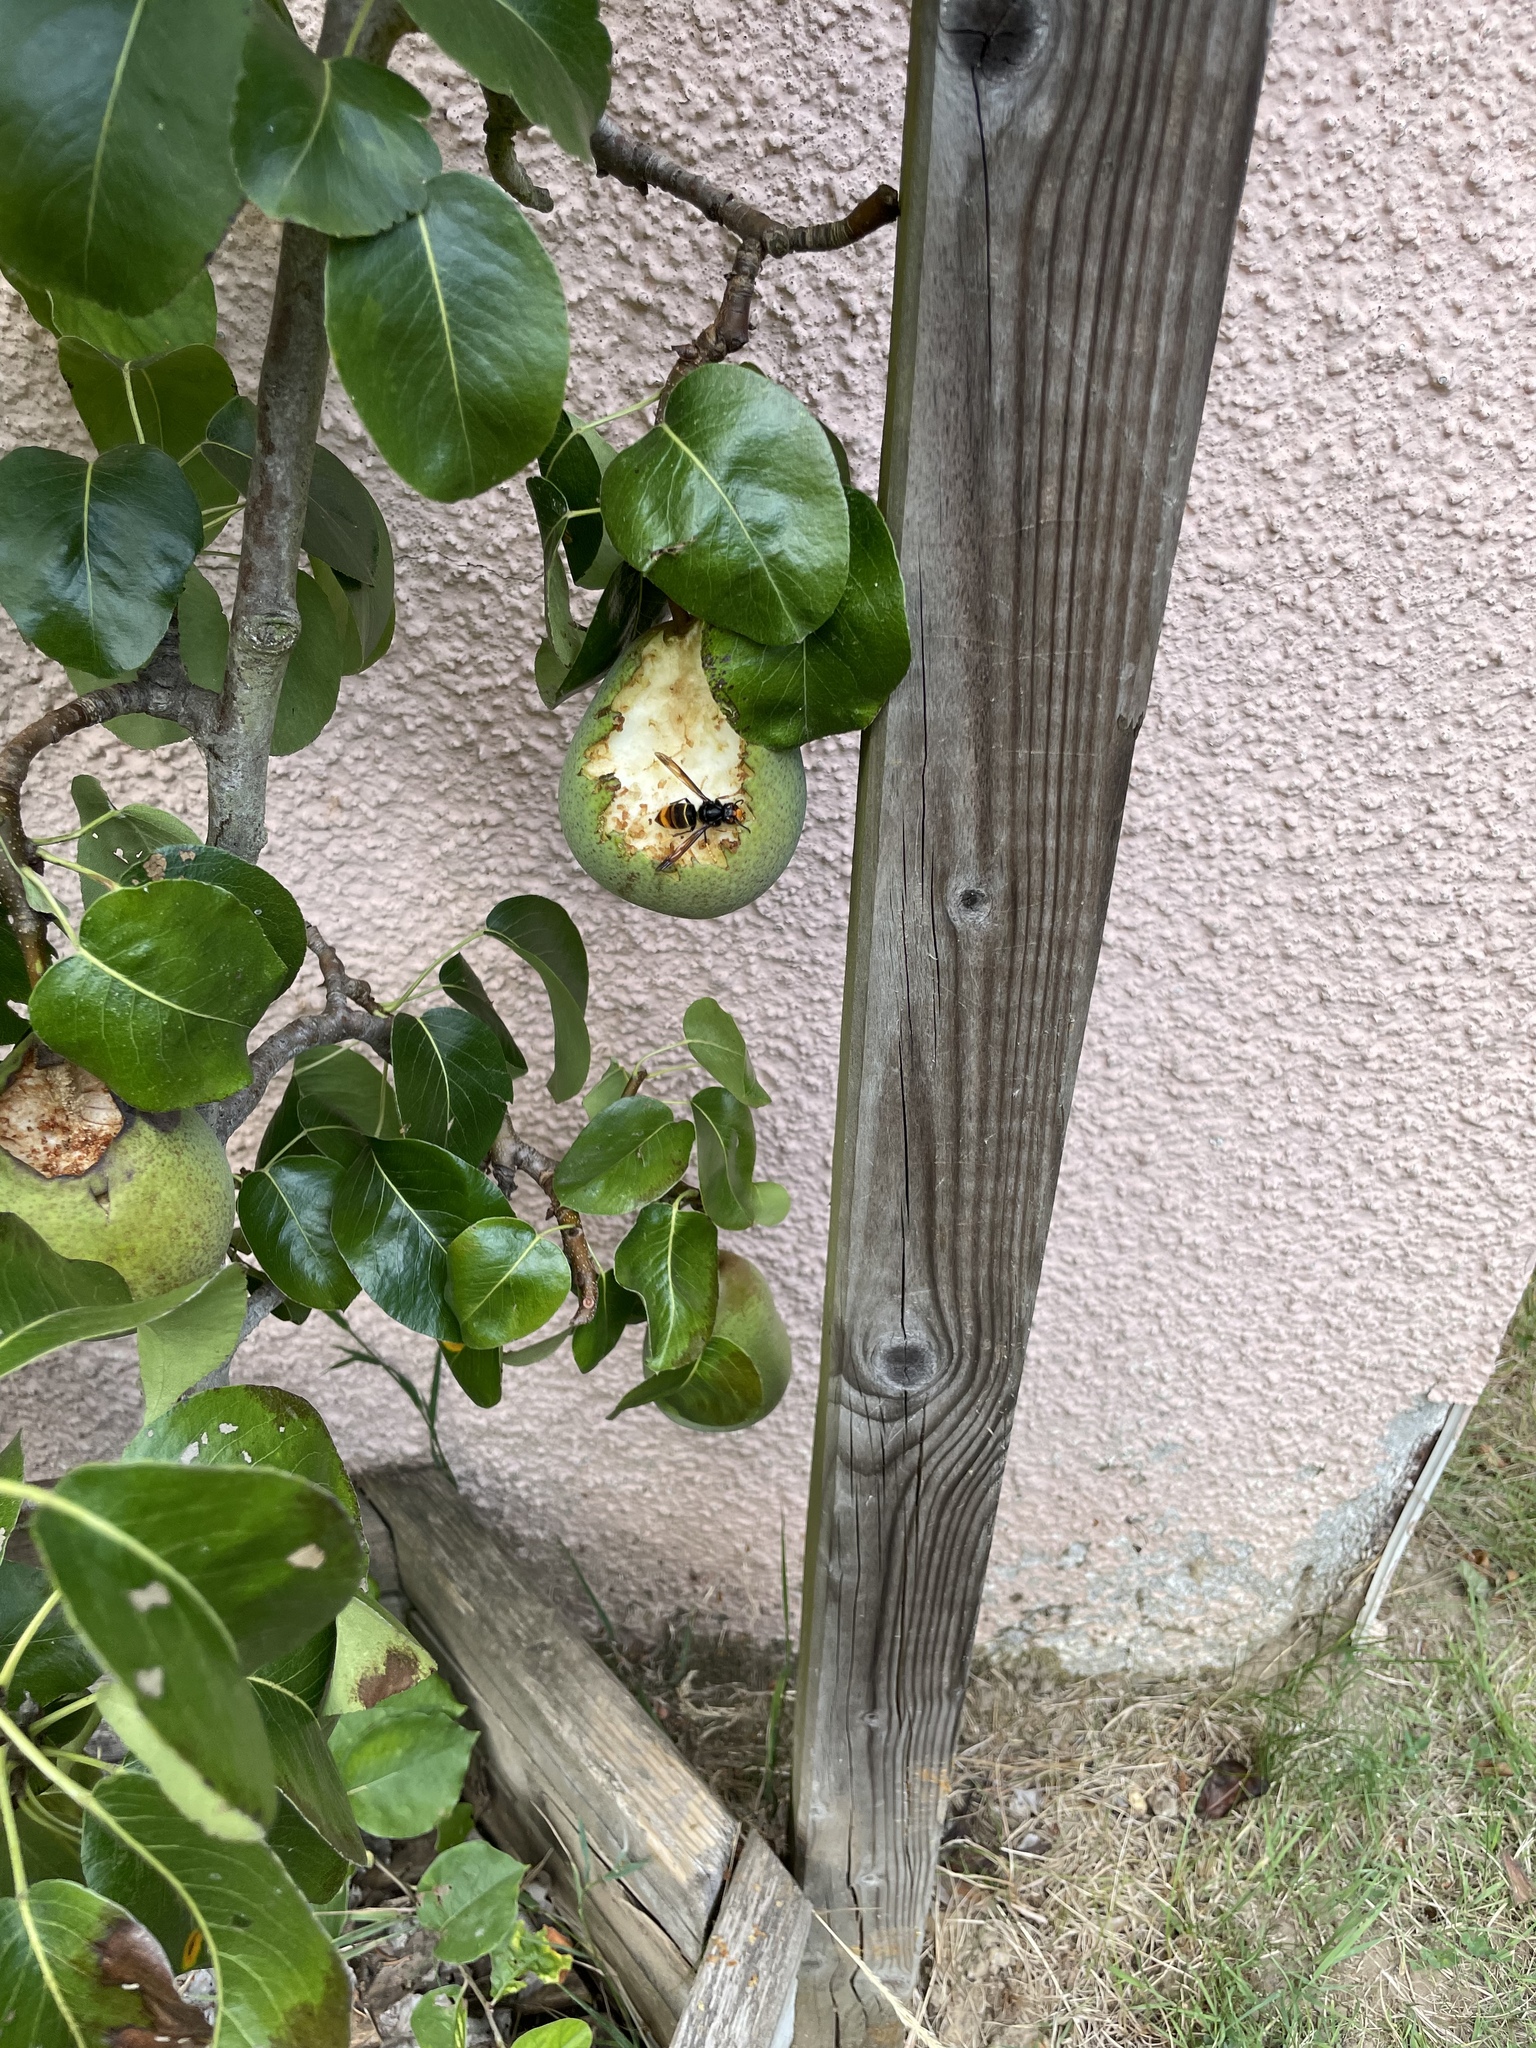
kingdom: Animalia
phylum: Arthropoda
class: Insecta
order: Hymenoptera
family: Vespidae
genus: Vespa
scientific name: Vespa velutina
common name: Asian hornet
